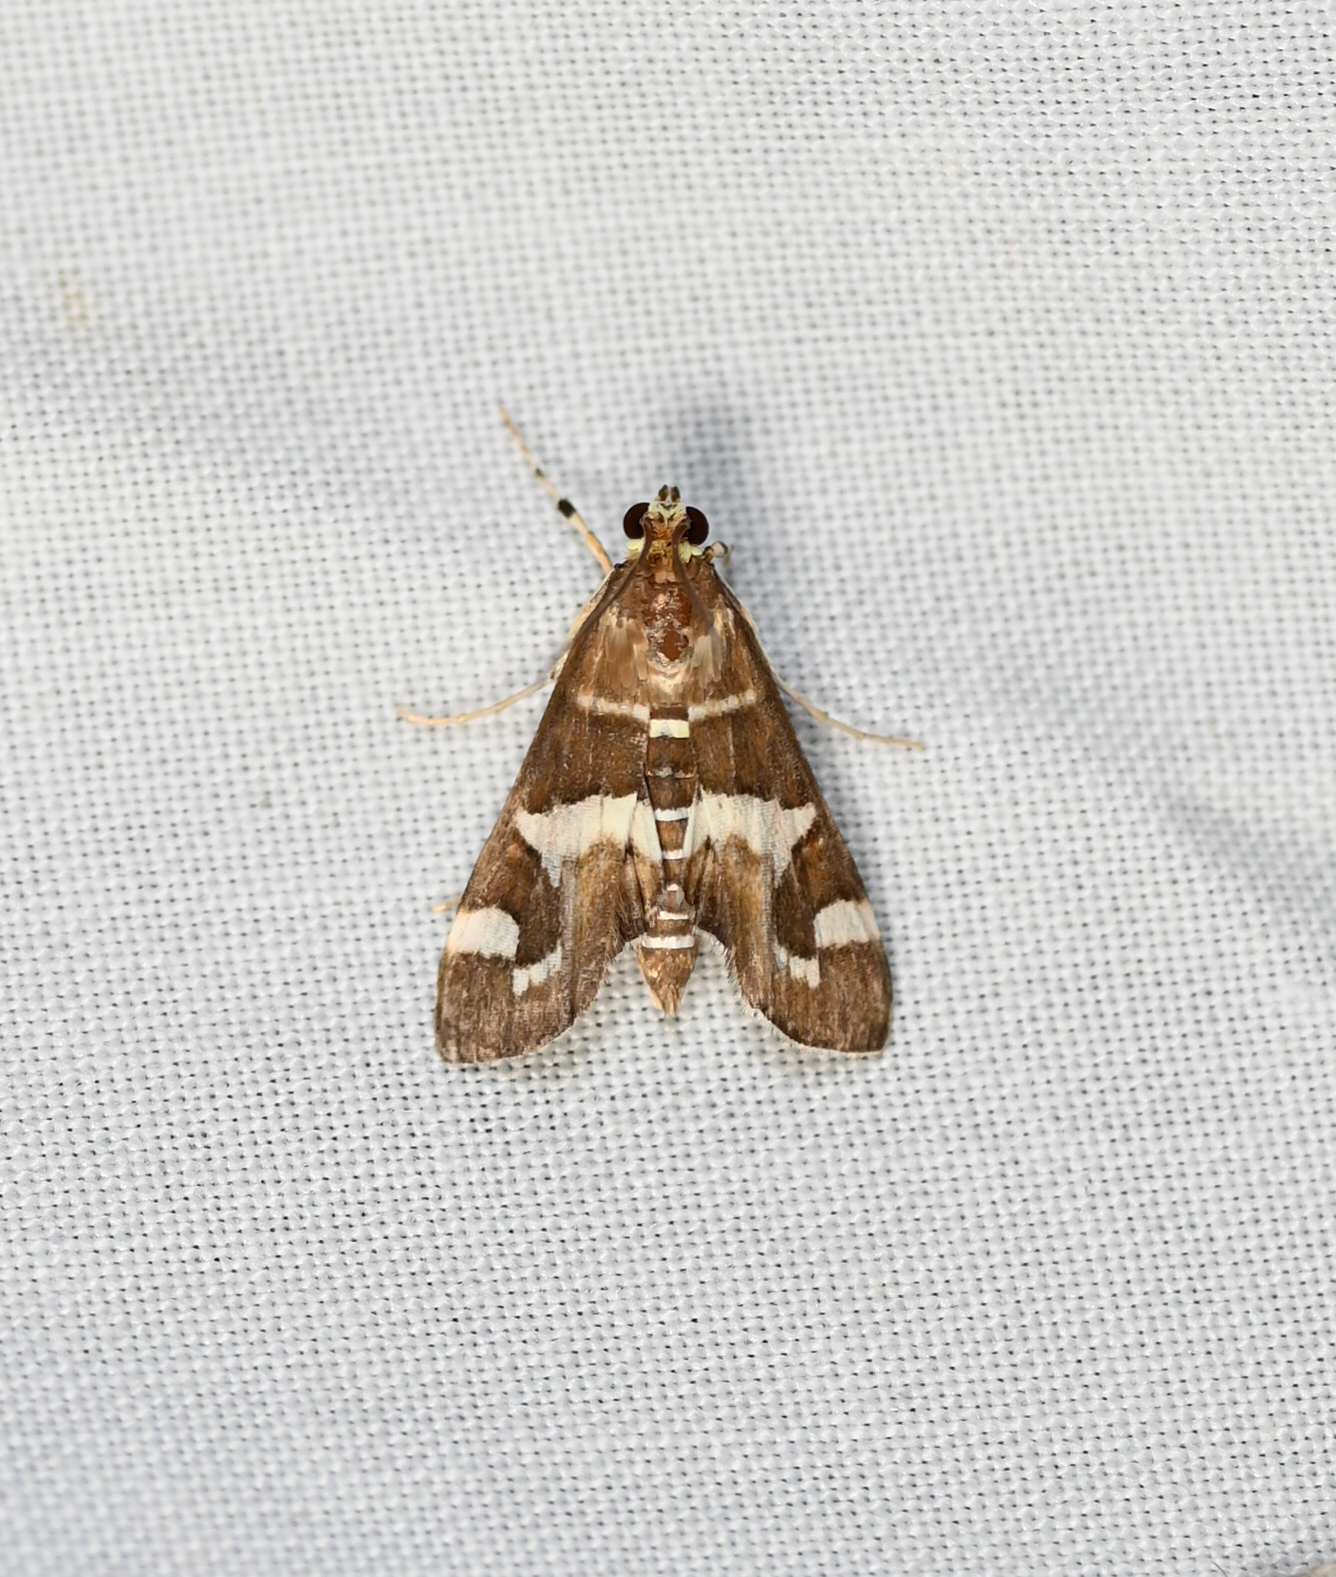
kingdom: Animalia
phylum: Arthropoda
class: Insecta
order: Lepidoptera
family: Crambidae
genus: Spoladea
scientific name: Spoladea recurvalis
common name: Beet webworm moth
